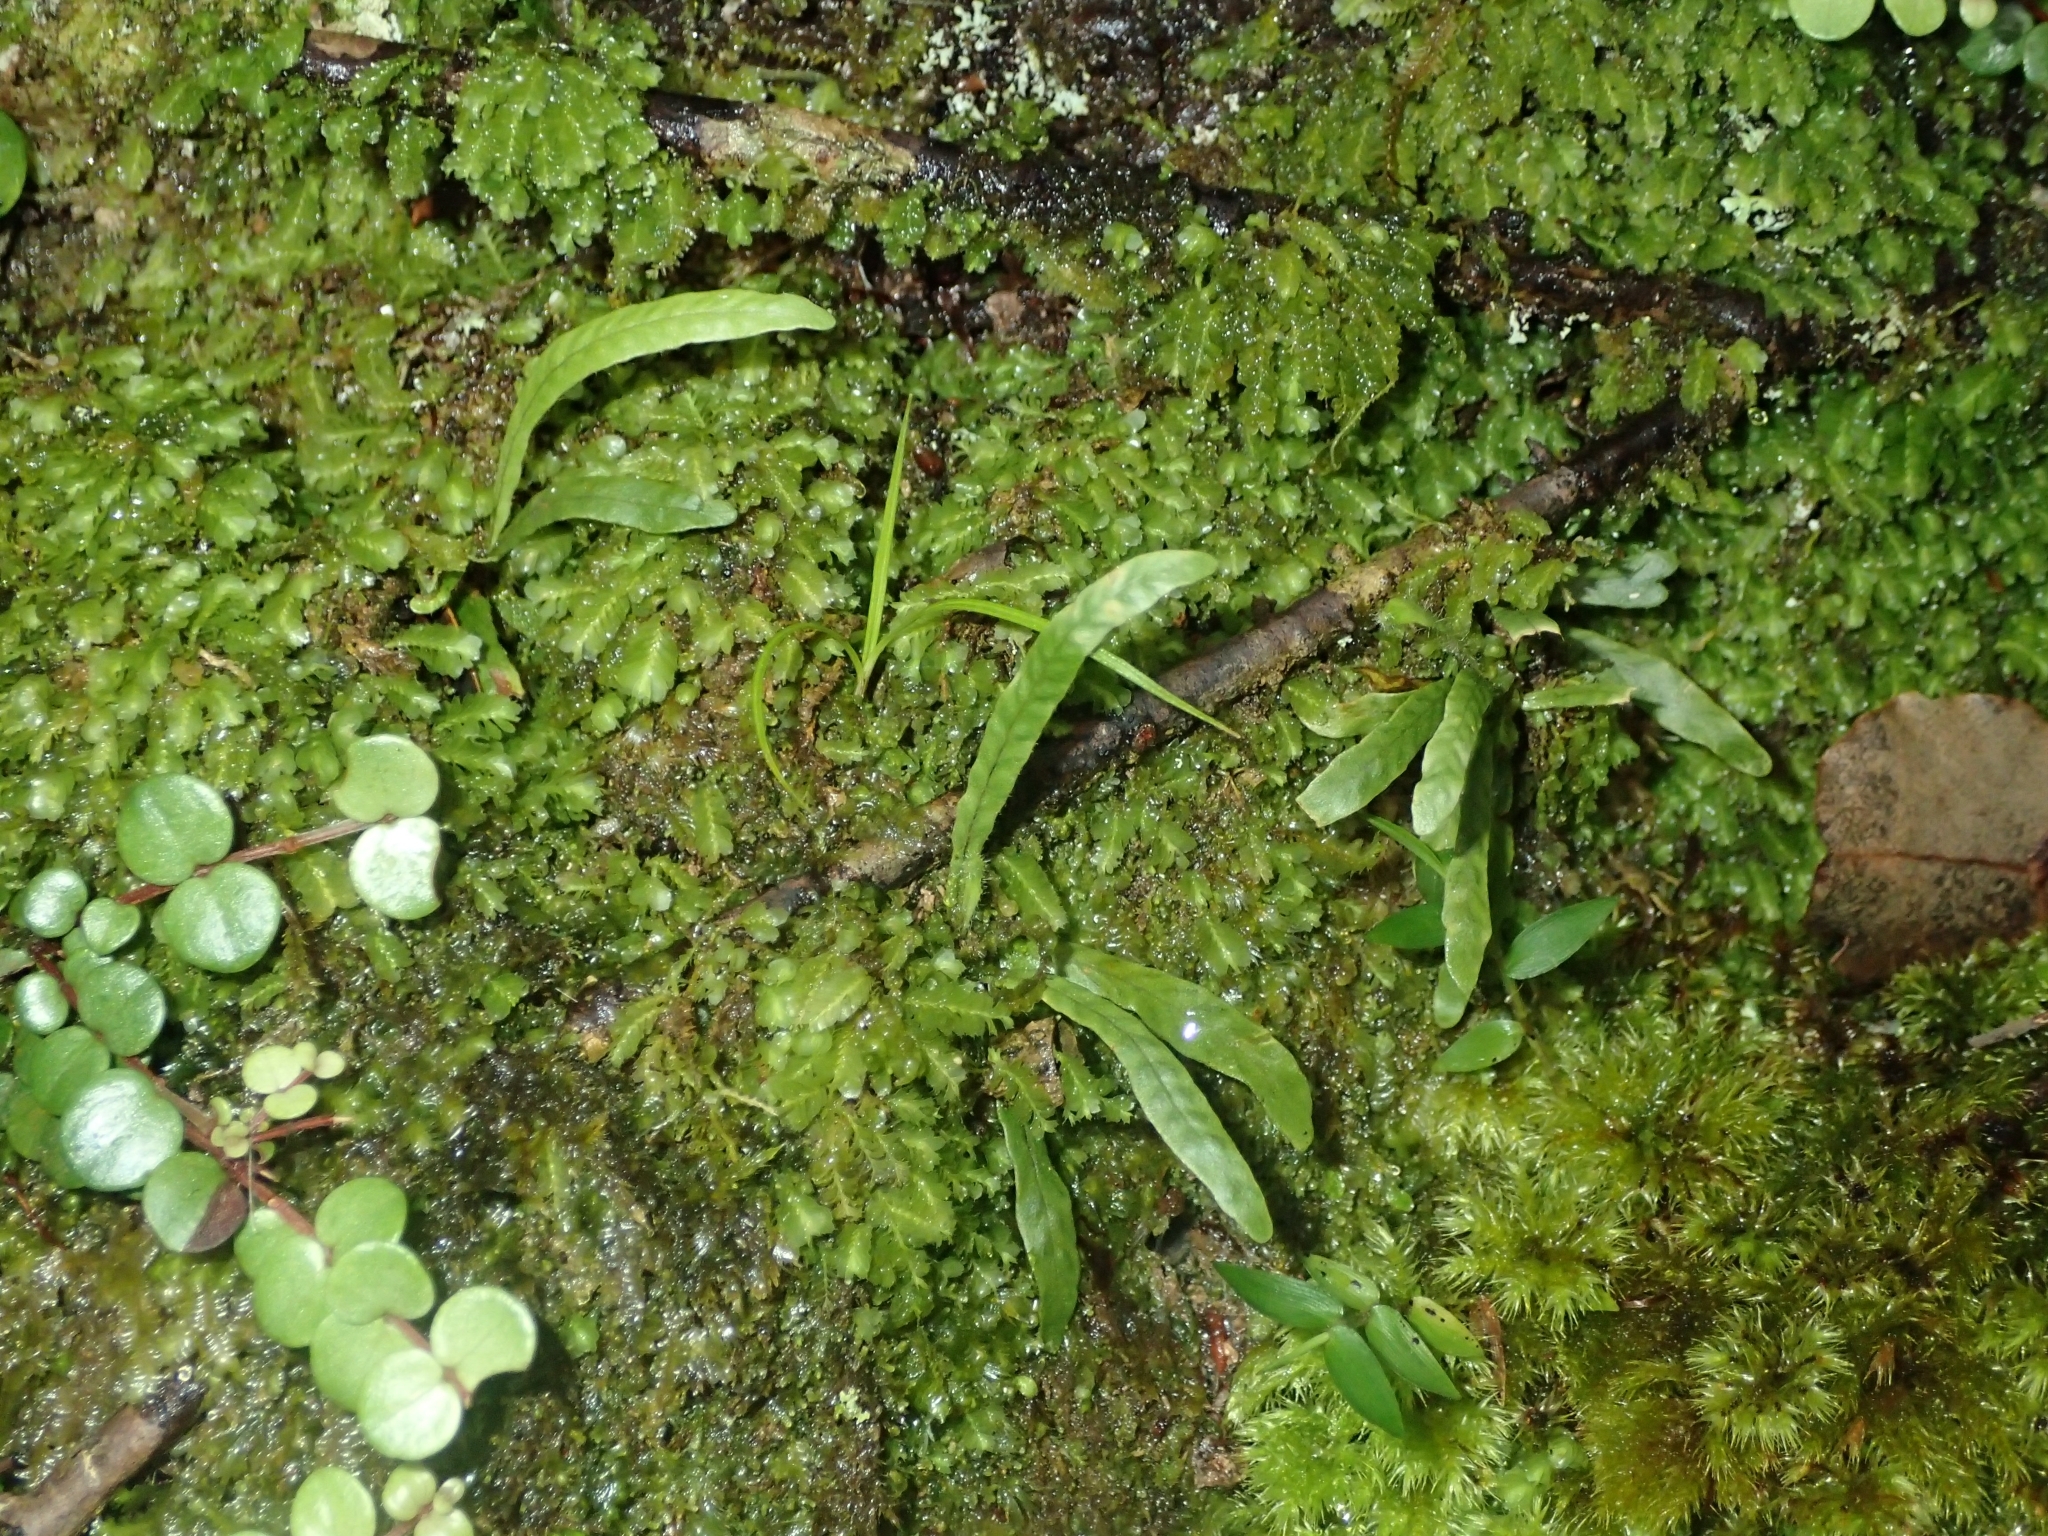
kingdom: Plantae
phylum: Tracheophyta
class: Polypodiopsida
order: Polypodiales
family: Polypodiaceae
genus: Notogrammitis
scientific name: Notogrammitis ciliata
